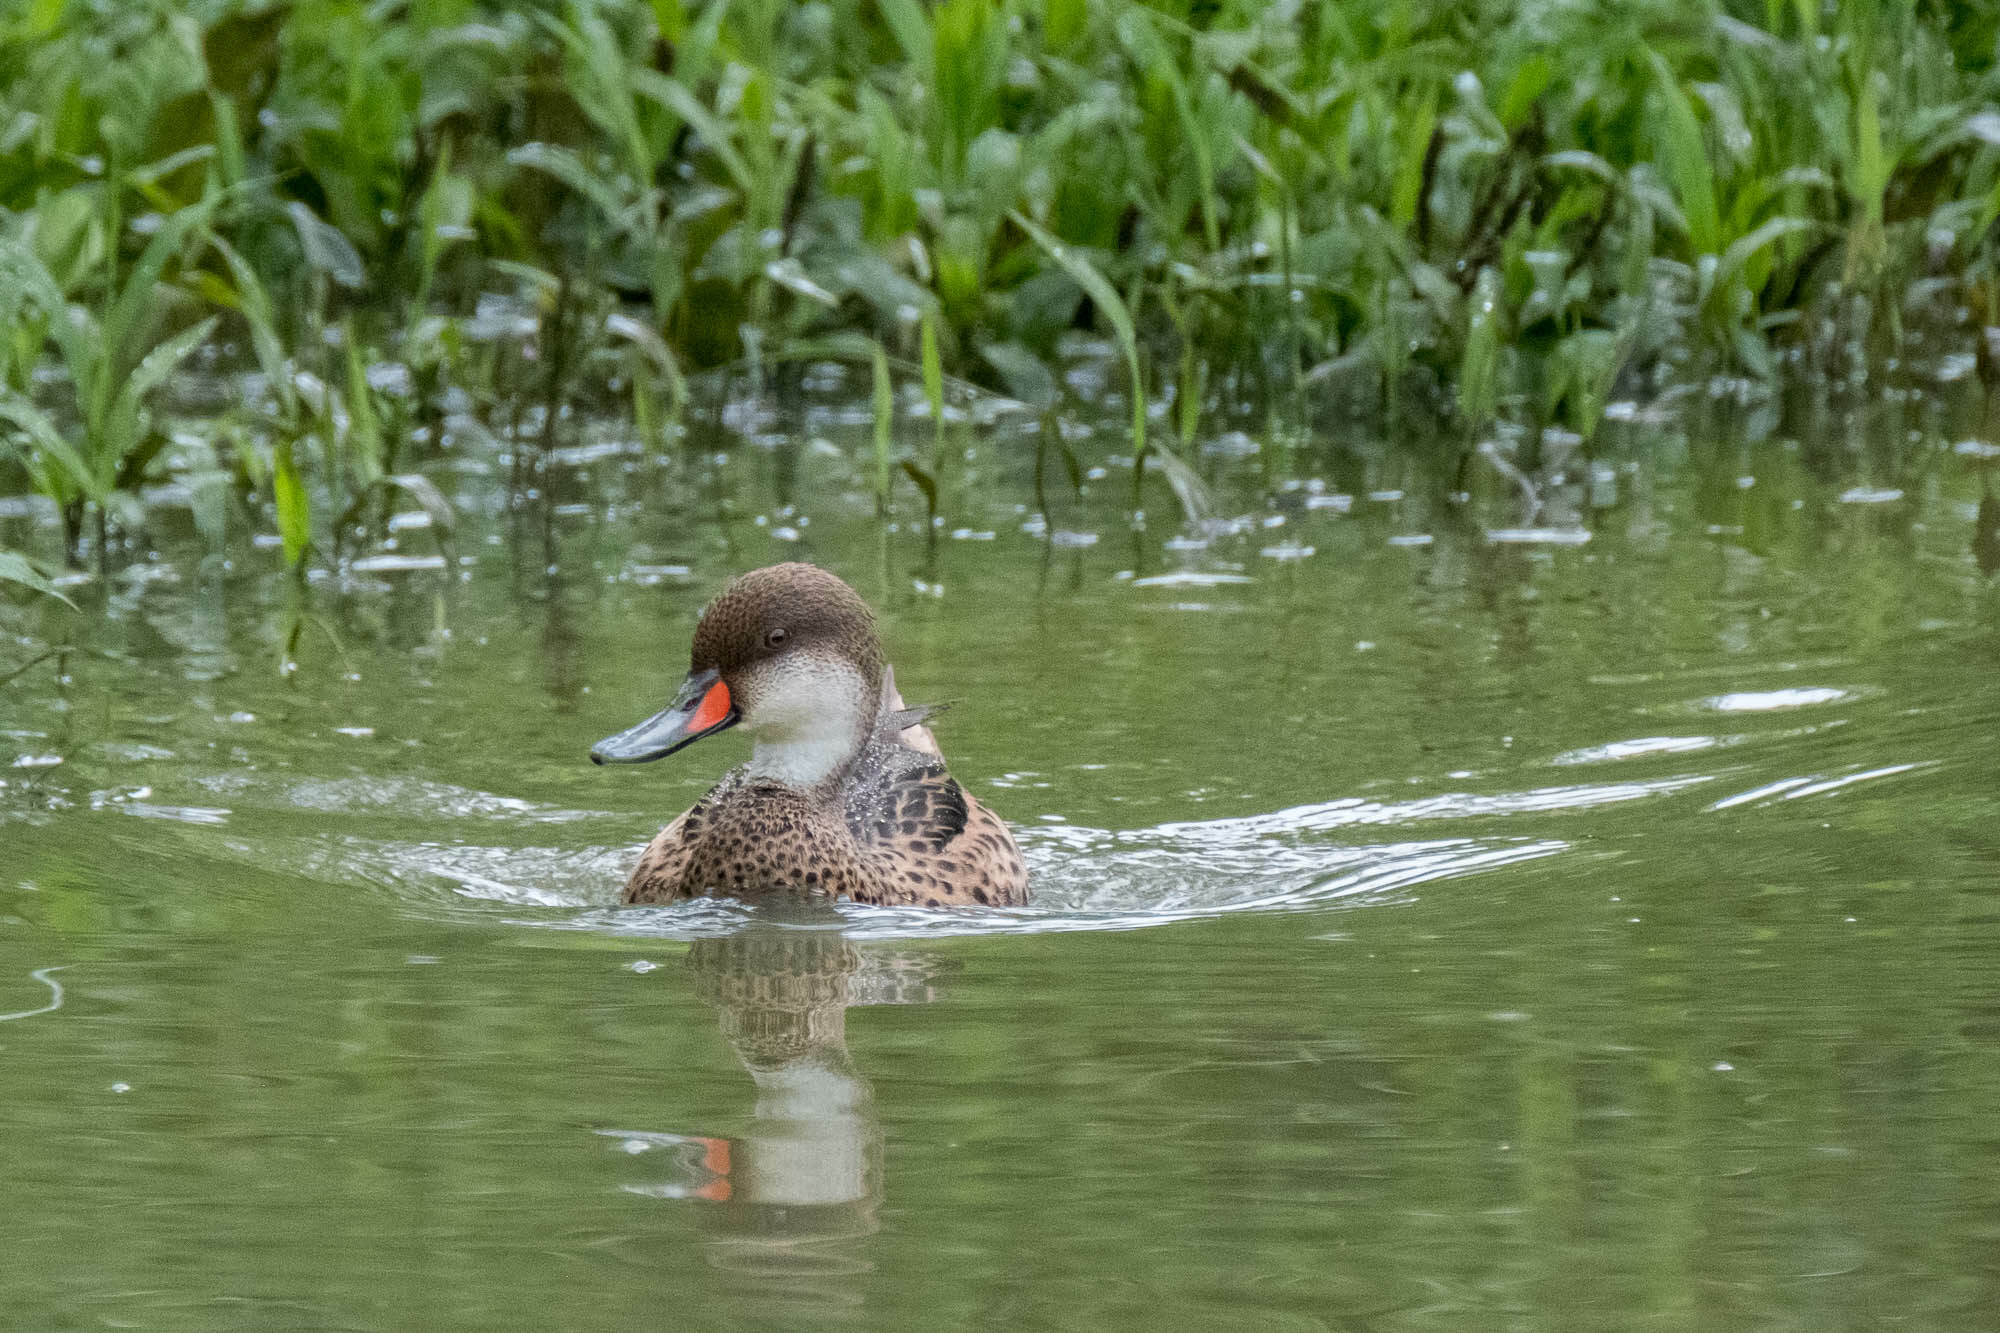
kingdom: Animalia
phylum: Chordata
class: Aves
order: Anseriformes
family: Anatidae
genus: Anas
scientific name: Anas bahamensis
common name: White-cheeked pintail
